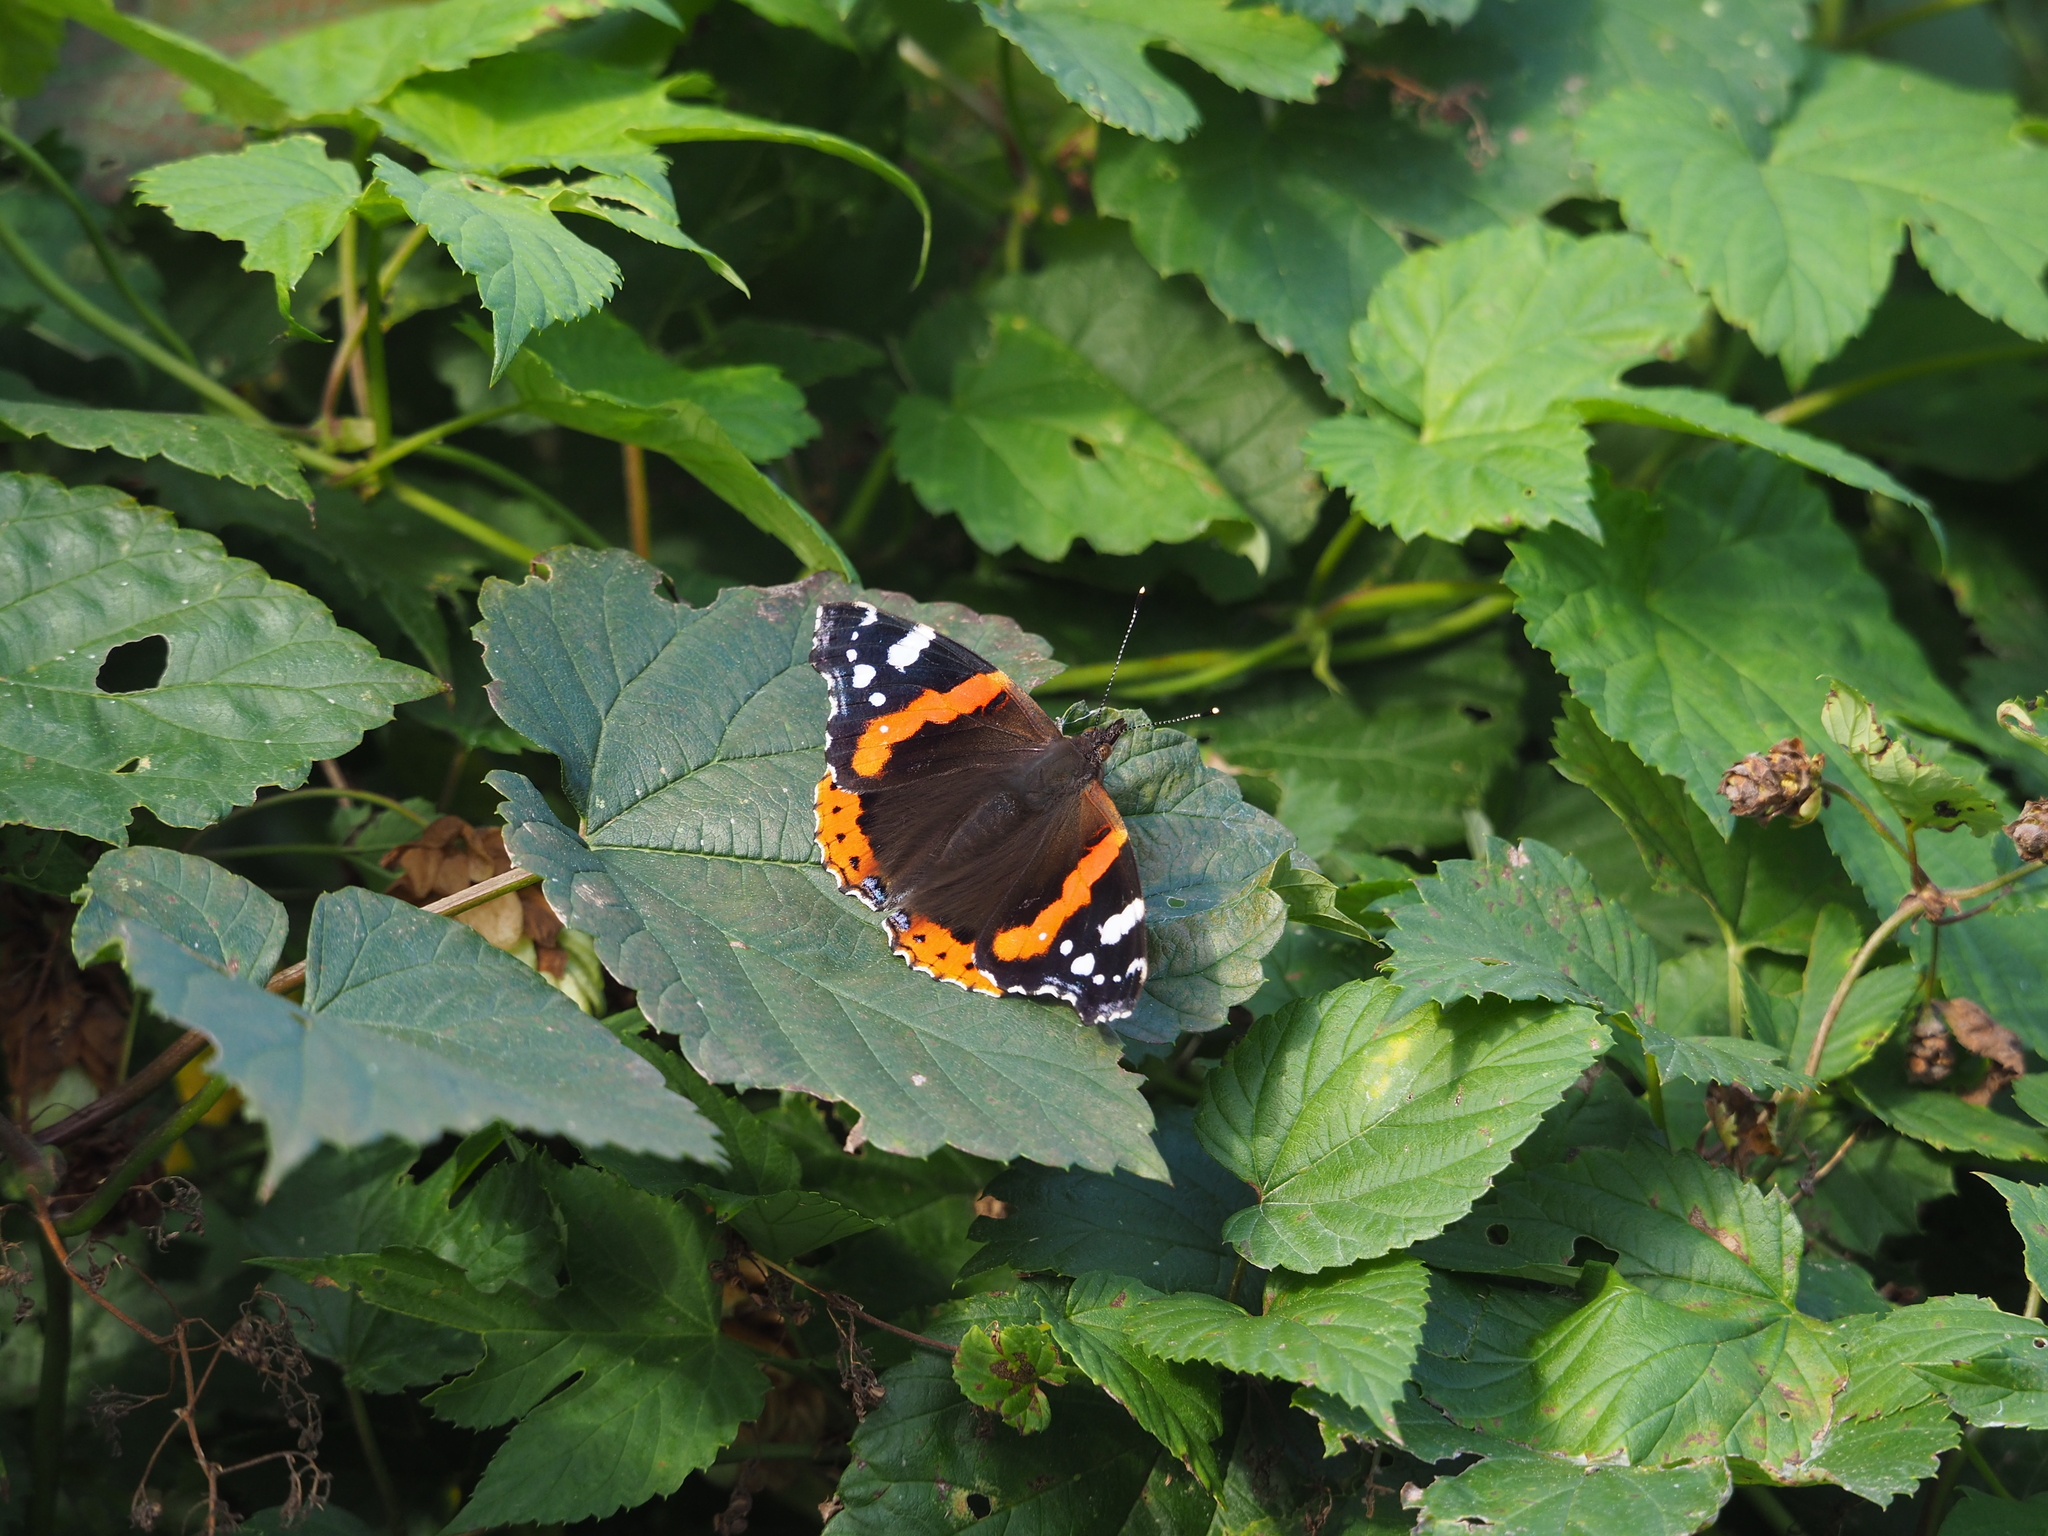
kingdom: Animalia
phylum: Arthropoda
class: Insecta
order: Lepidoptera
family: Nymphalidae
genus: Vanessa
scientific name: Vanessa atalanta
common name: Red admiral
